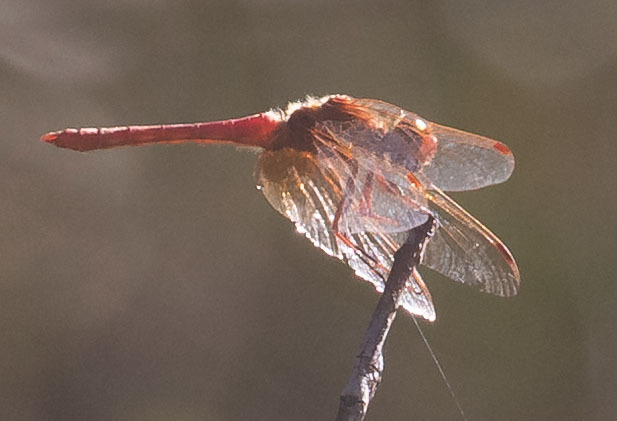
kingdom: Animalia
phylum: Arthropoda
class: Insecta
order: Odonata
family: Libellulidae
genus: Sympetrum
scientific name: Sympetrum illotum
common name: Cardinal meadowhawk
